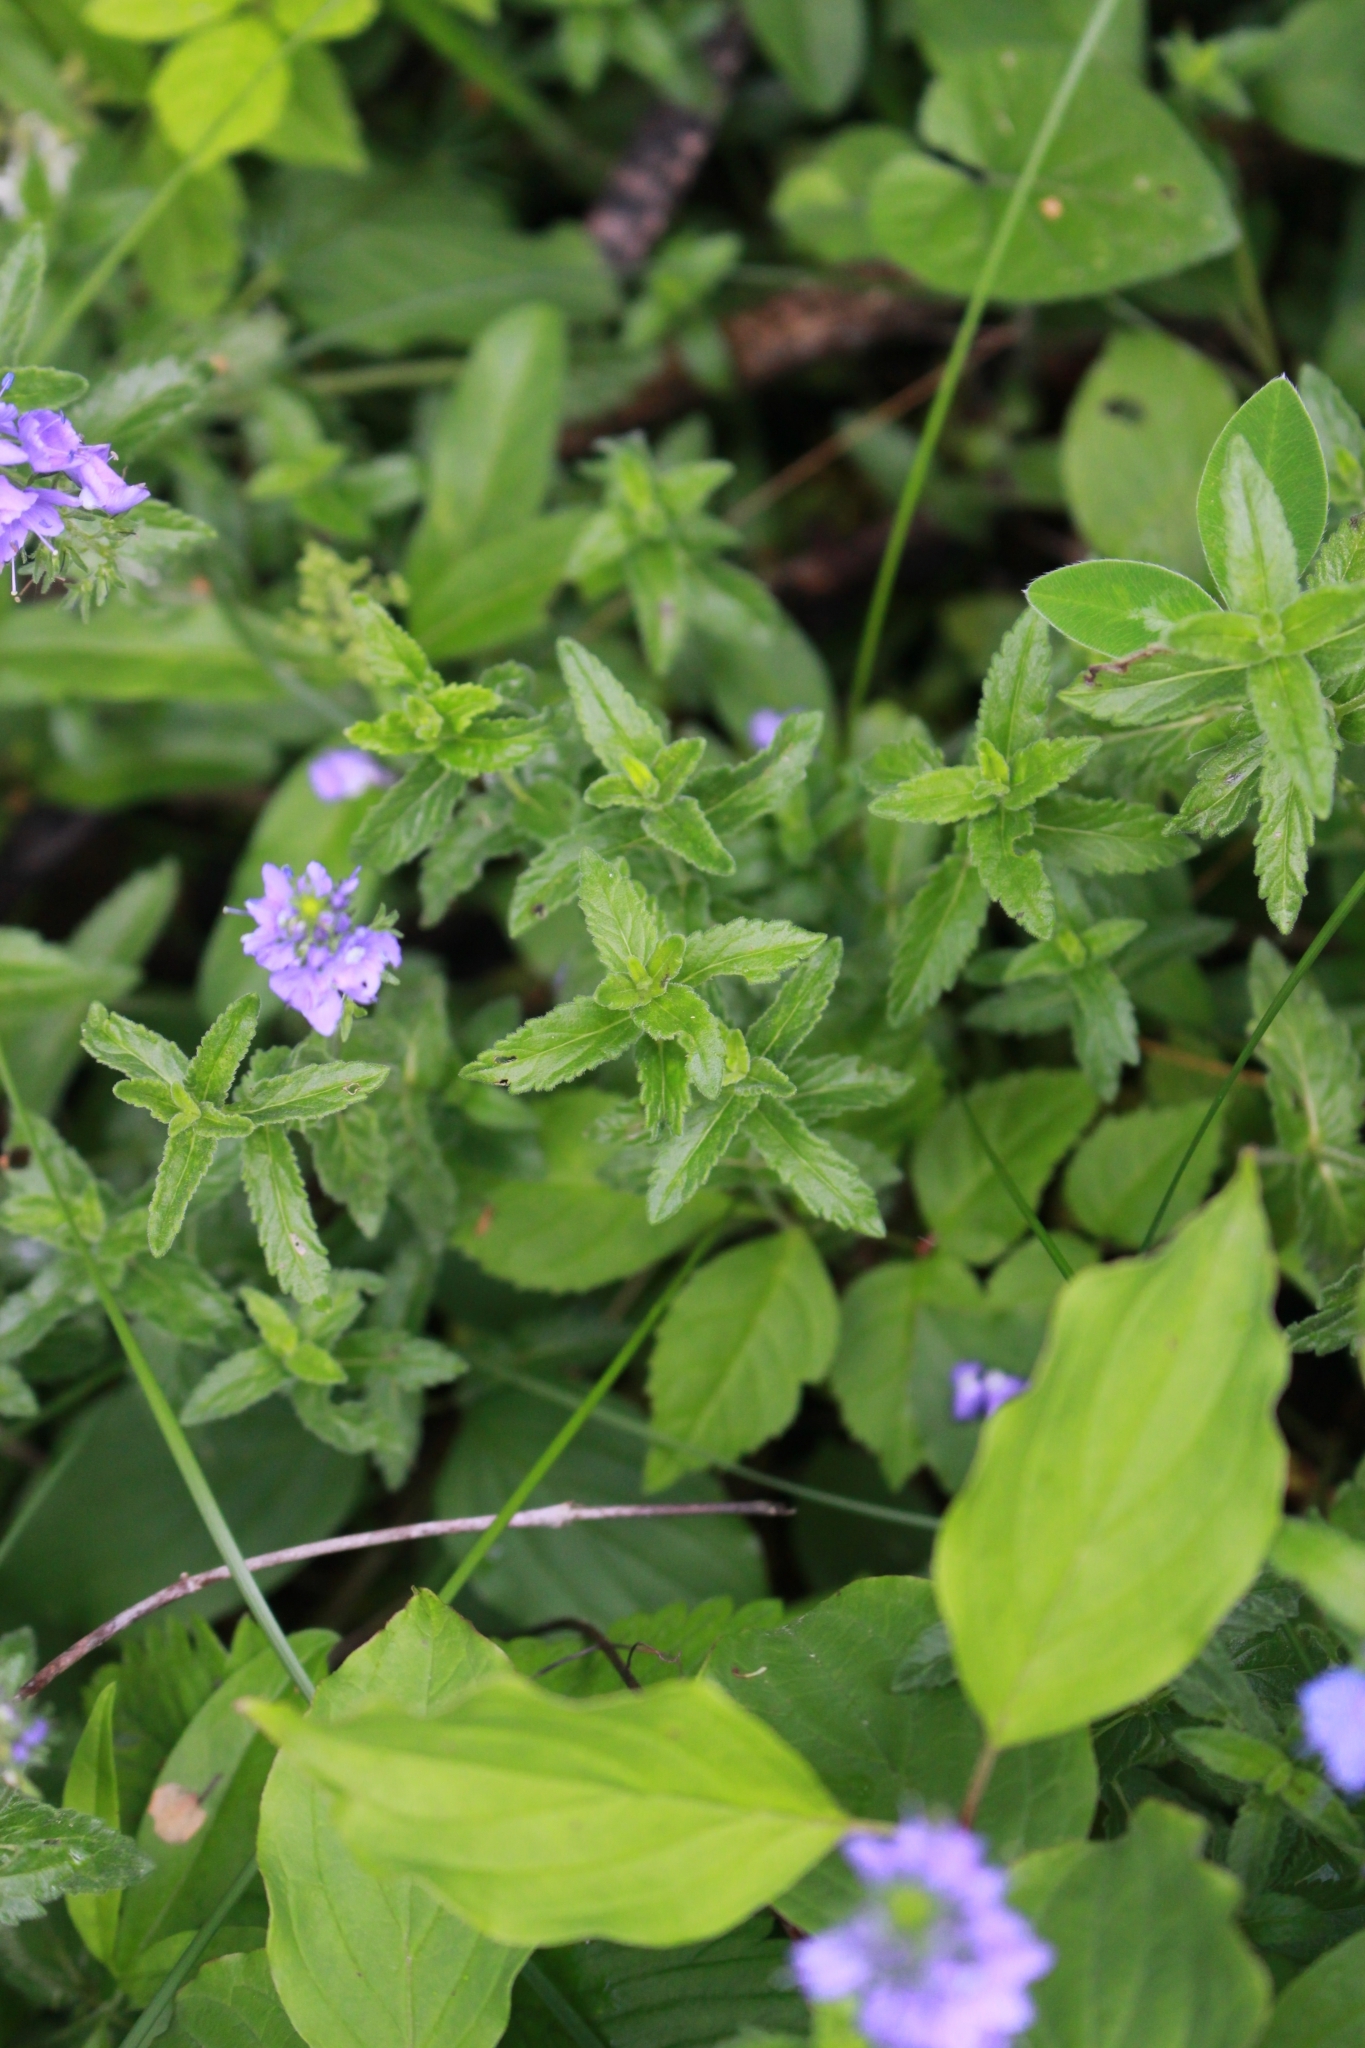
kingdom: Plantae
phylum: Tracheophyta
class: Magnoliopsida
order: Lamiales
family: Plantaginaceae
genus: Veronica
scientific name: Veronica teucrium
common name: Large speedwell
